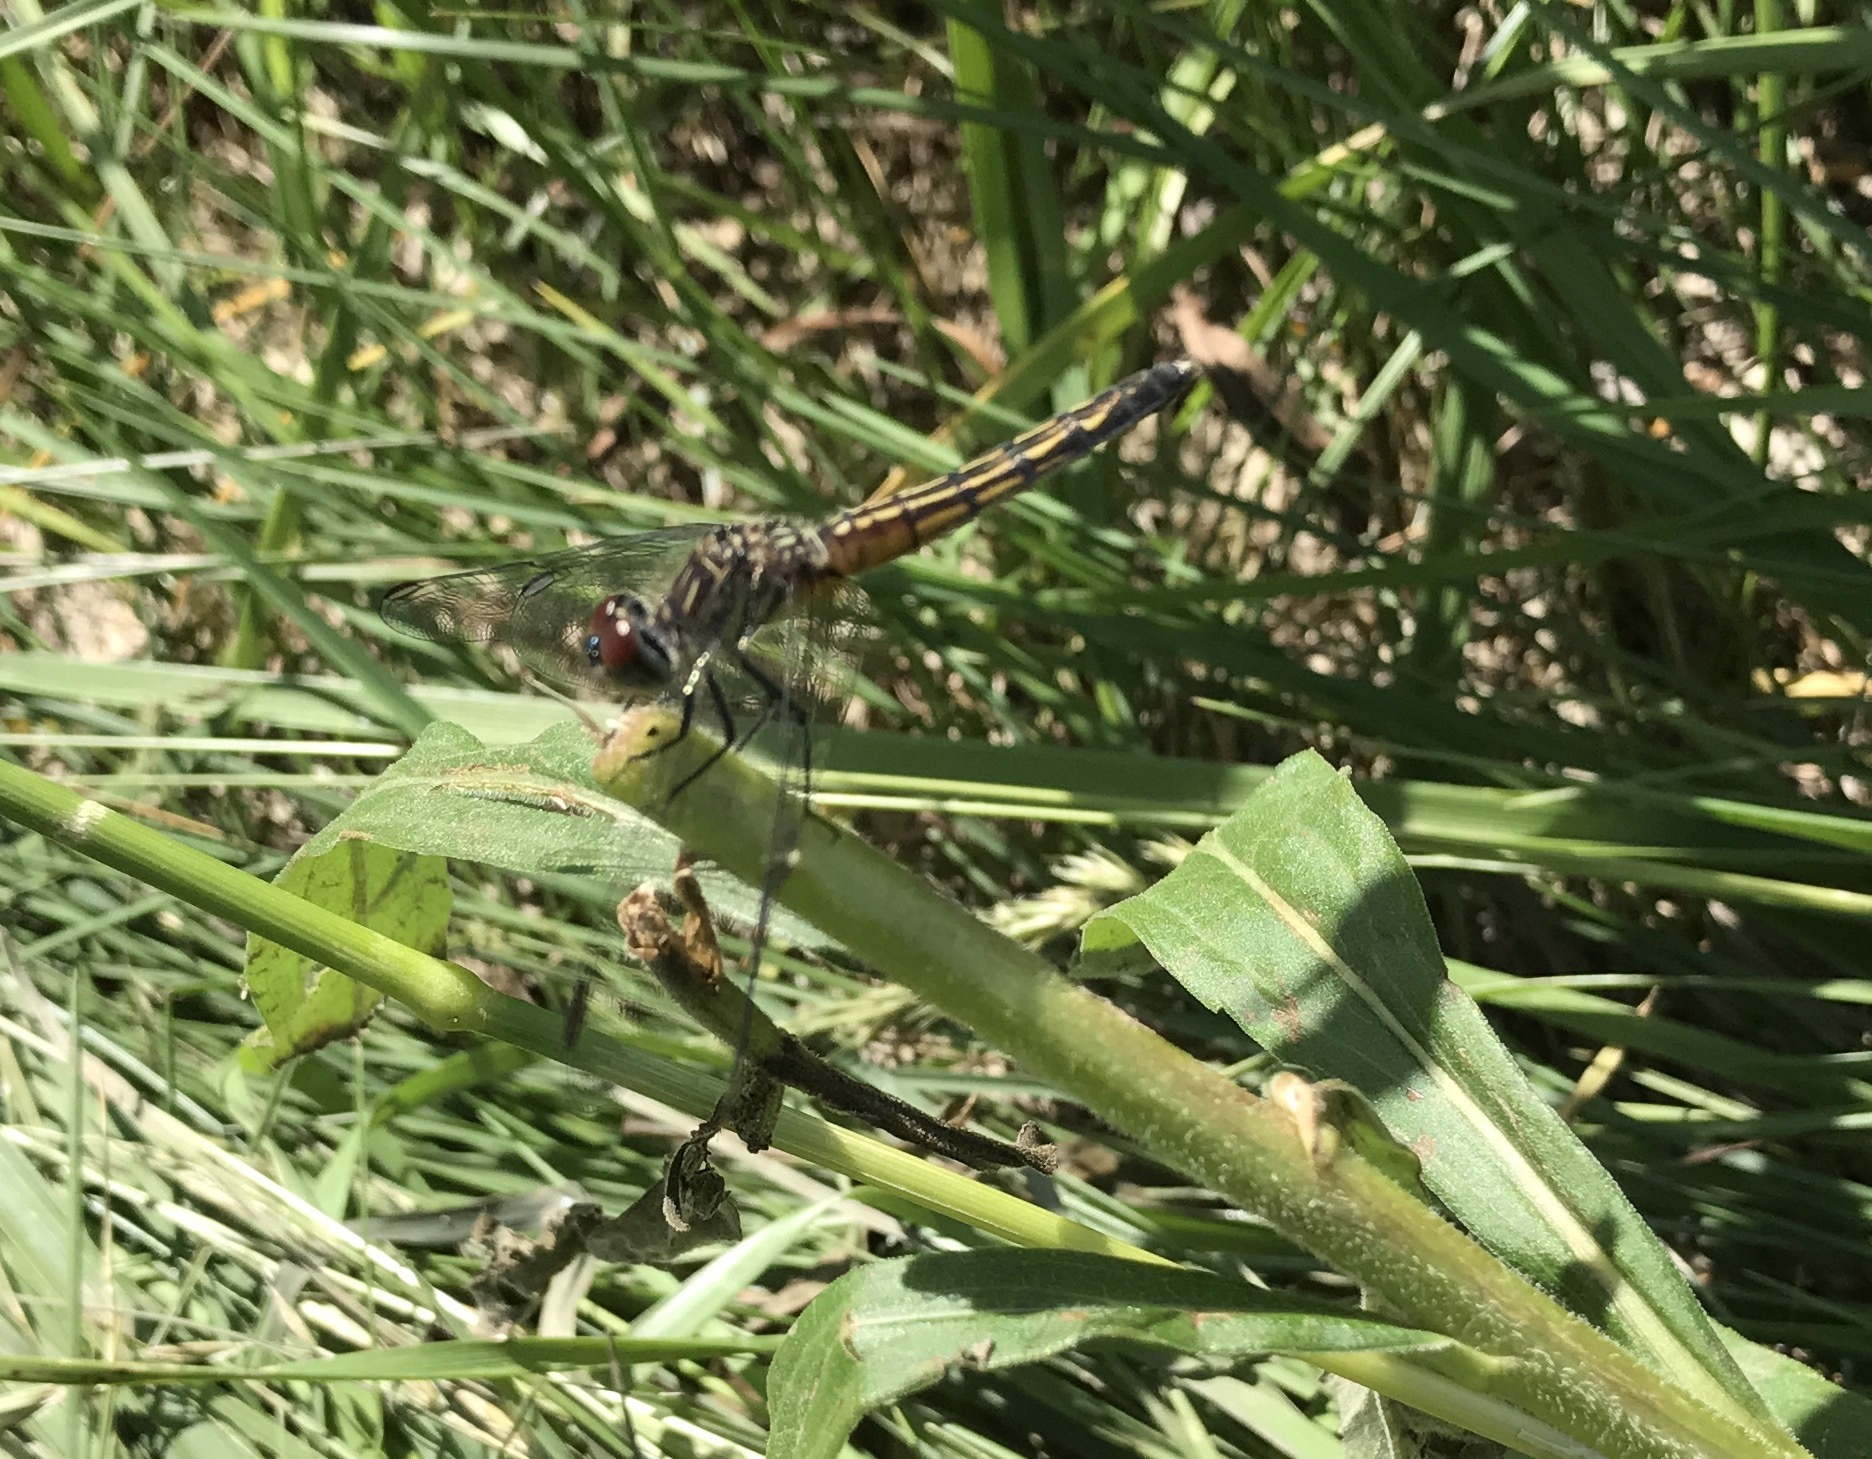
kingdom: Animalia
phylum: Arthropoda
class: Insecta
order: Odonata
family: Libellulidae
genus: Pachydiplax
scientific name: Pachydiplax longipennis
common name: Blue dasher
